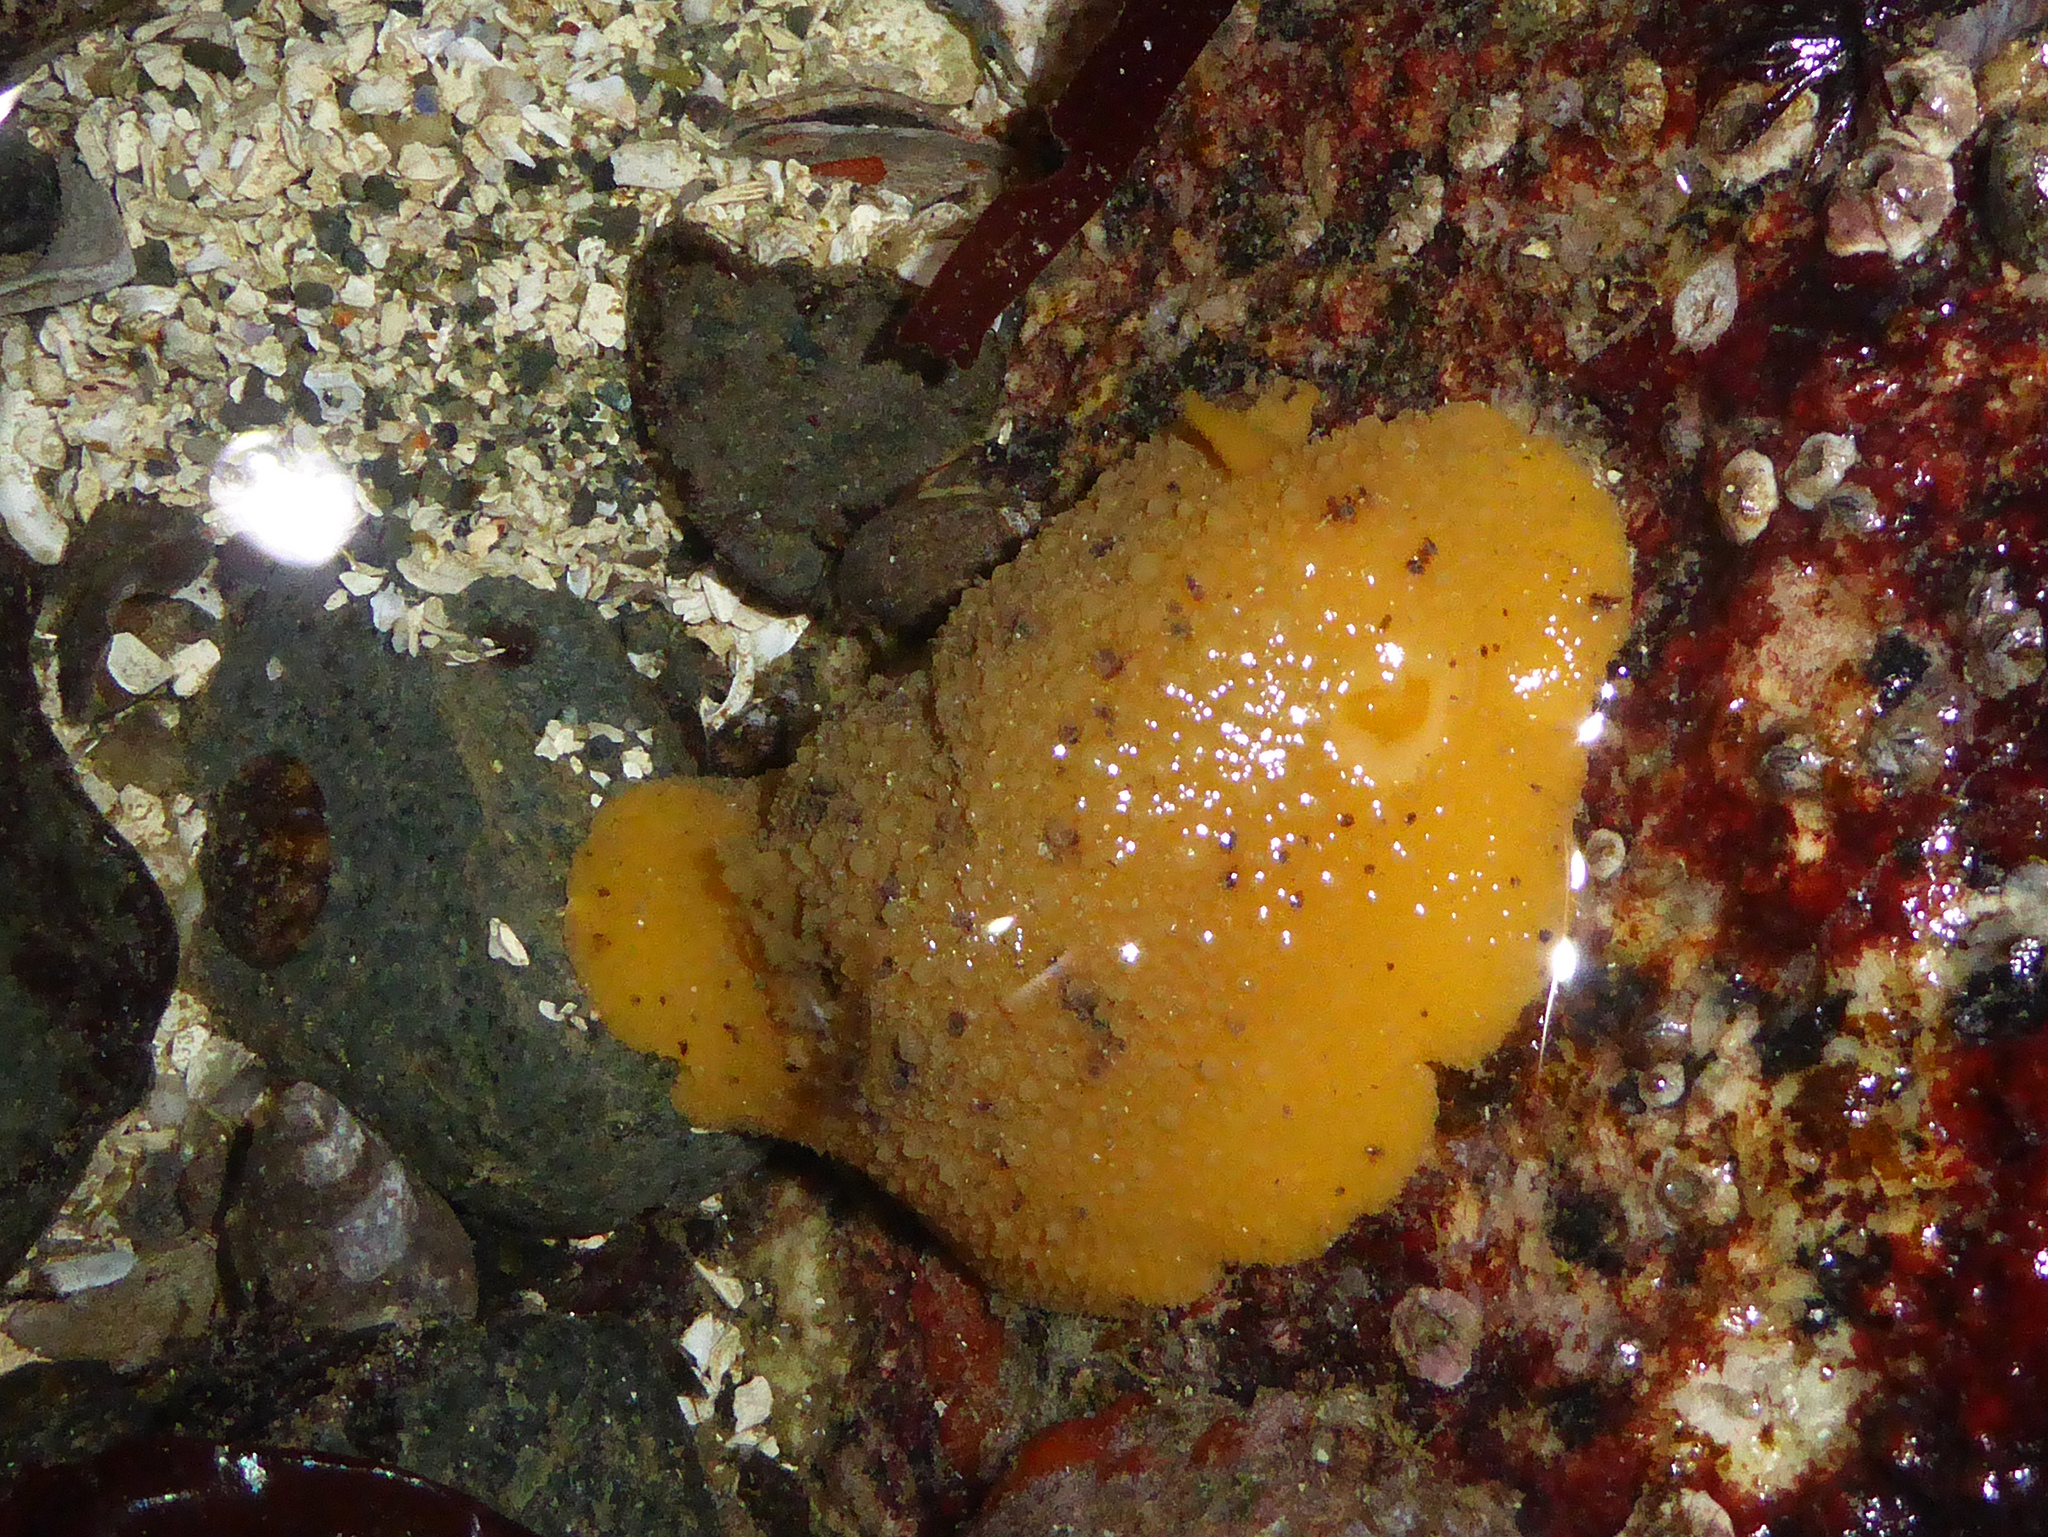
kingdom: Animalia
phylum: Mollusca
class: Gastropoda
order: Nudibranchia
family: Dorididae
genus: Doris
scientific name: Doris montereyensis
